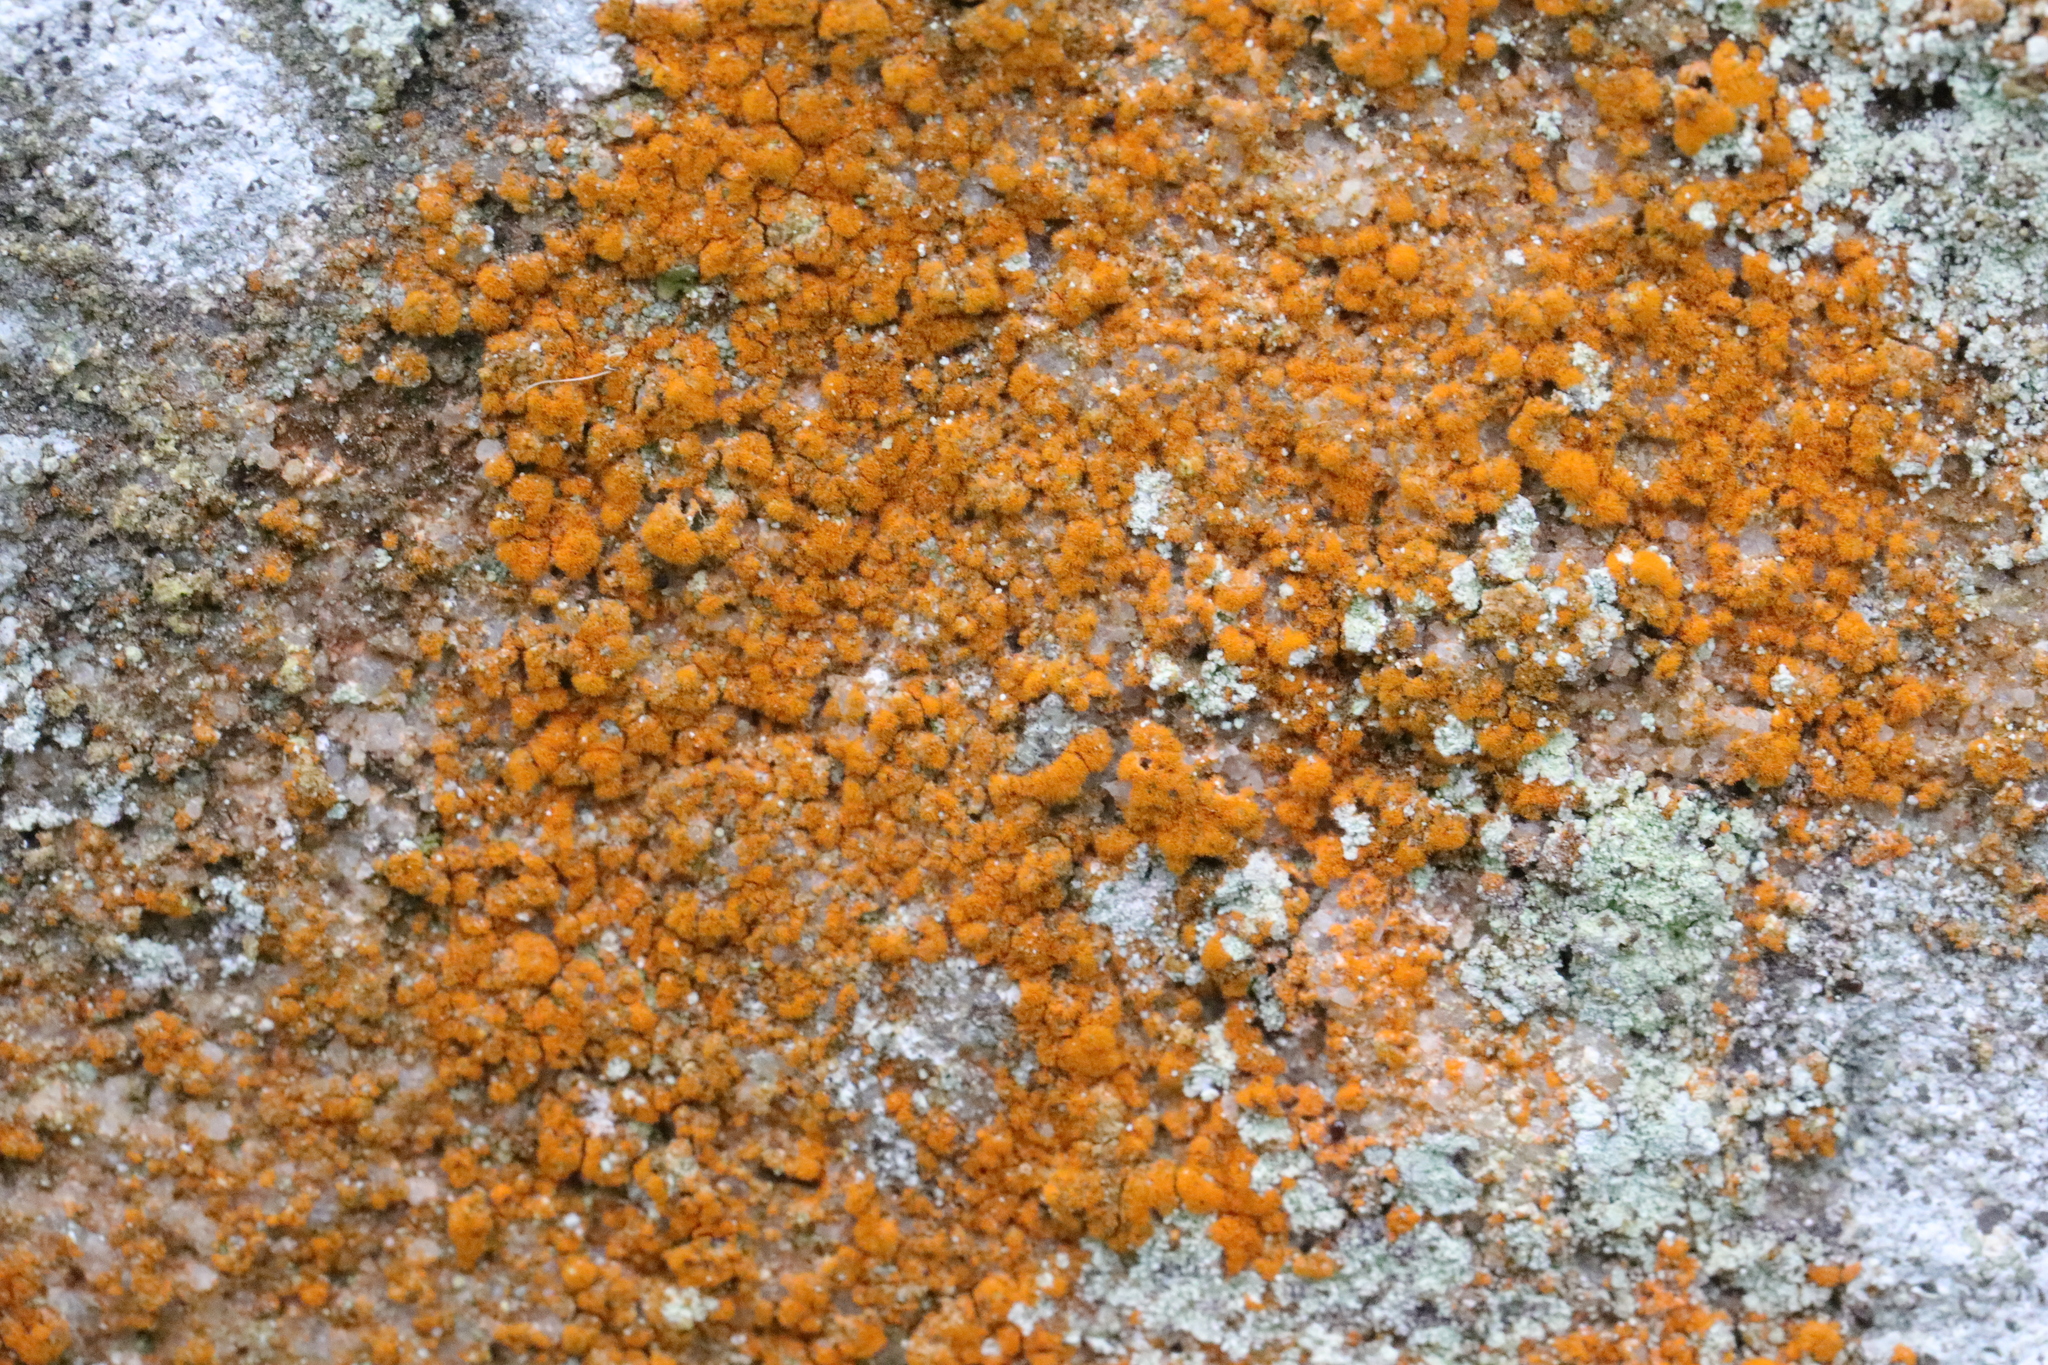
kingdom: Plantae
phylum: Chlorophyta
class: Ulvophyceae
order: Trentepohliales
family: Trentepohliaceae
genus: Trentepohlia
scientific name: Trentepohlia
